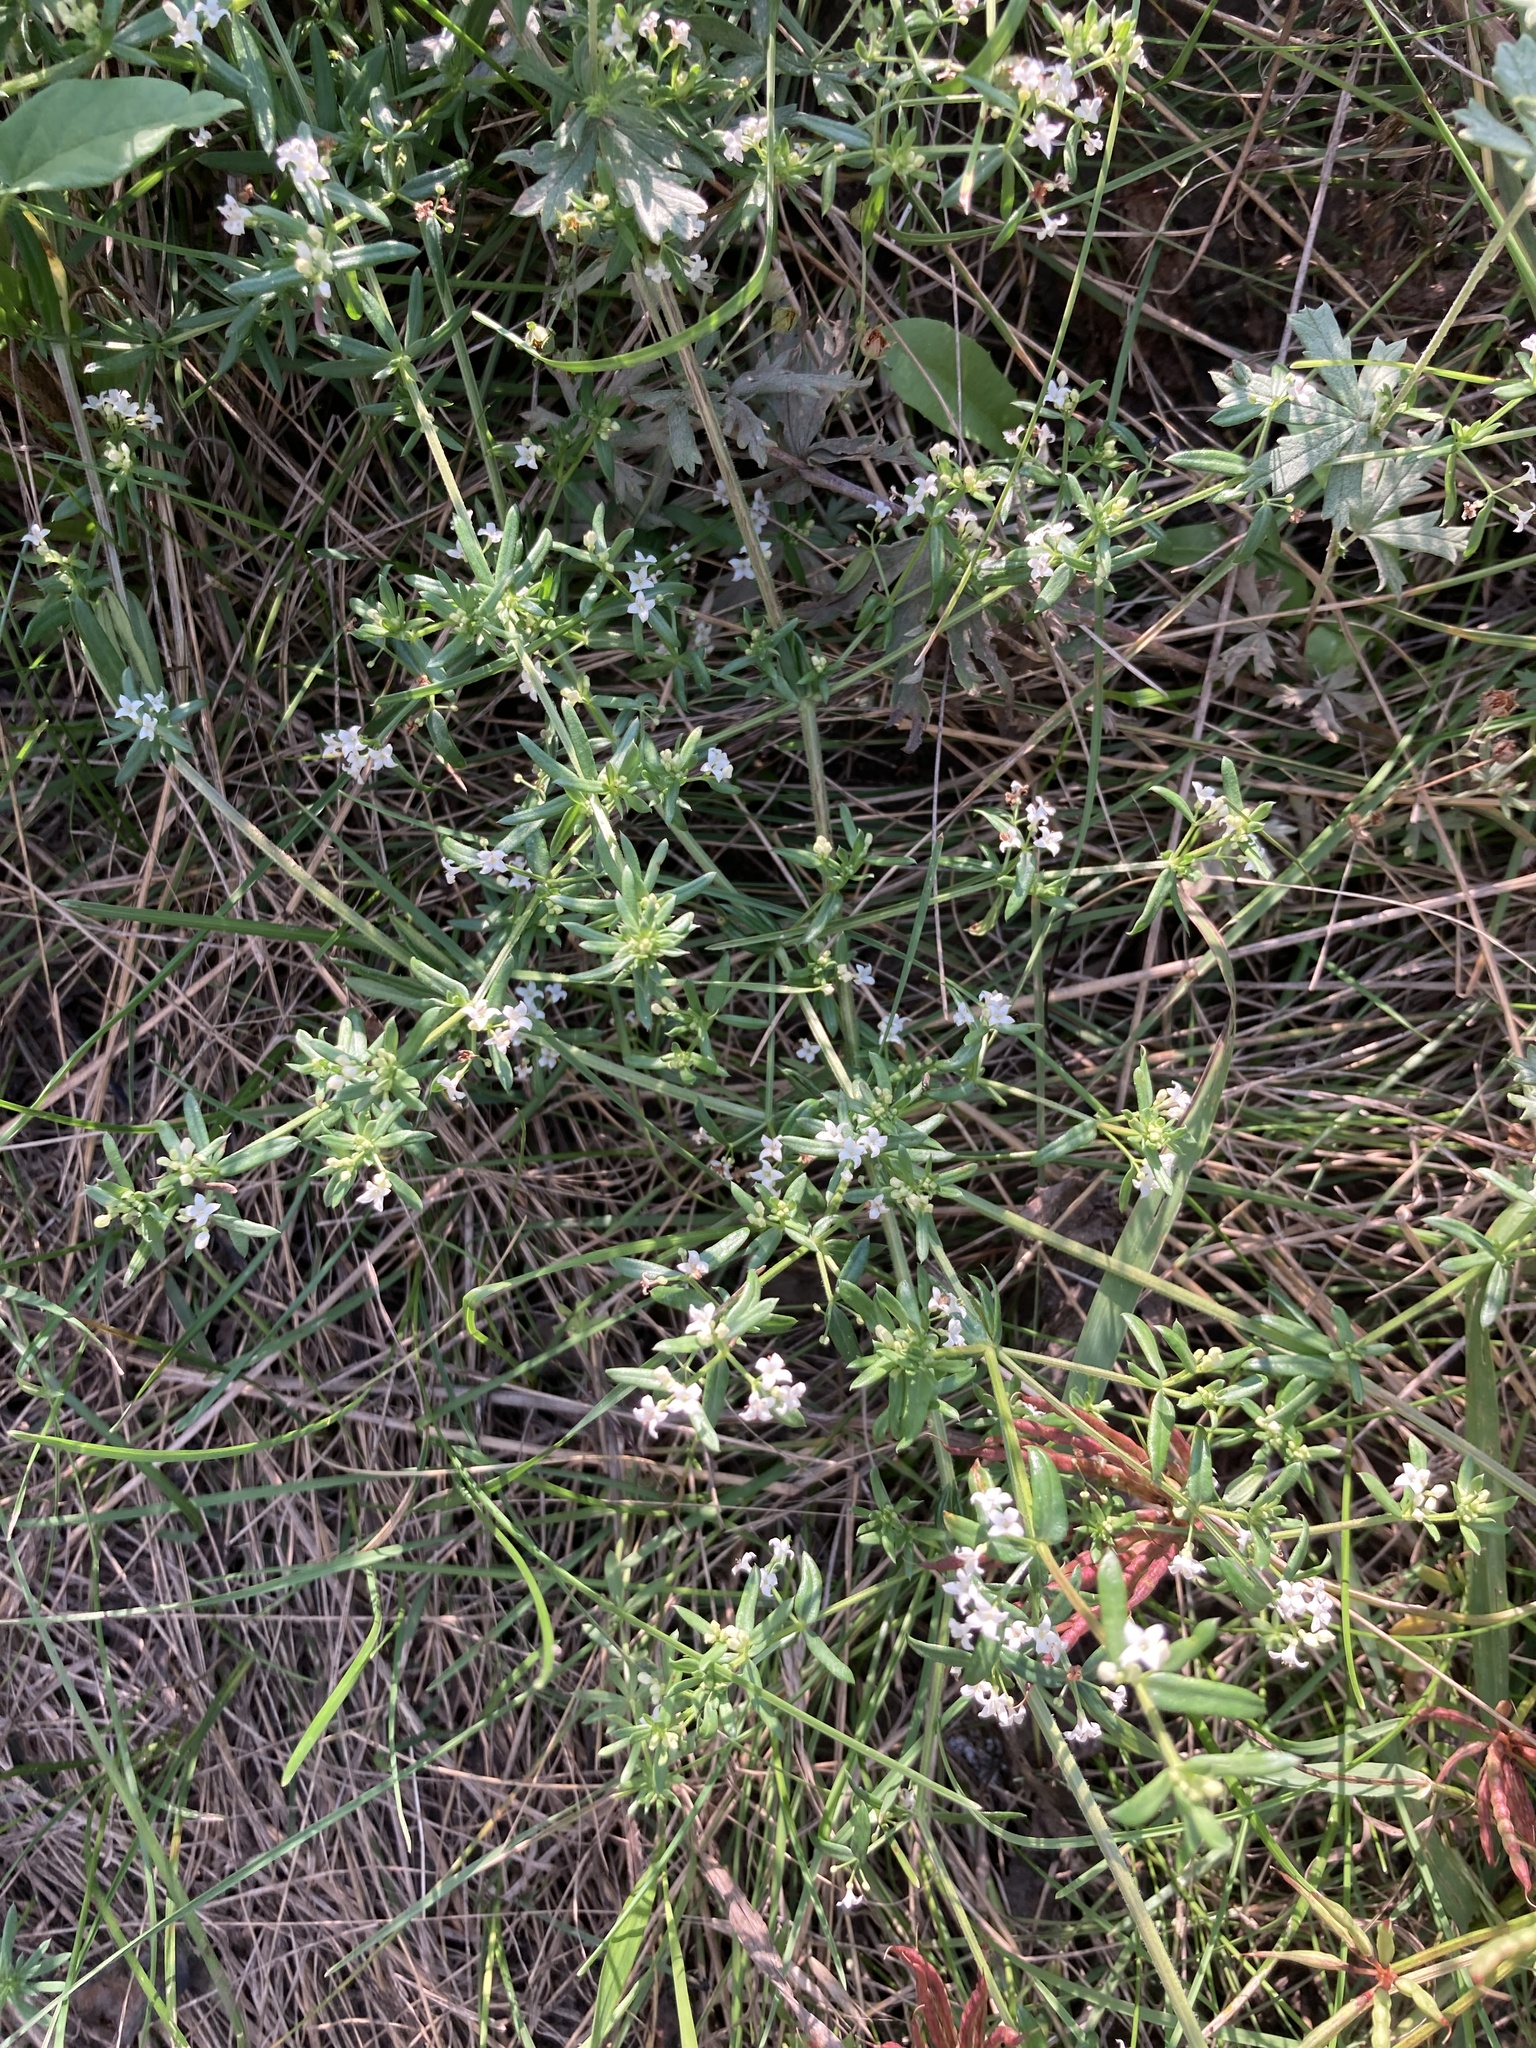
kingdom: Plantae
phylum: Tracheophyta
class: Magnoliopsida
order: Gentianales
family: Rubiaceae
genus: Galium
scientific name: Galium humifusum
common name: Spreading bedstraw
